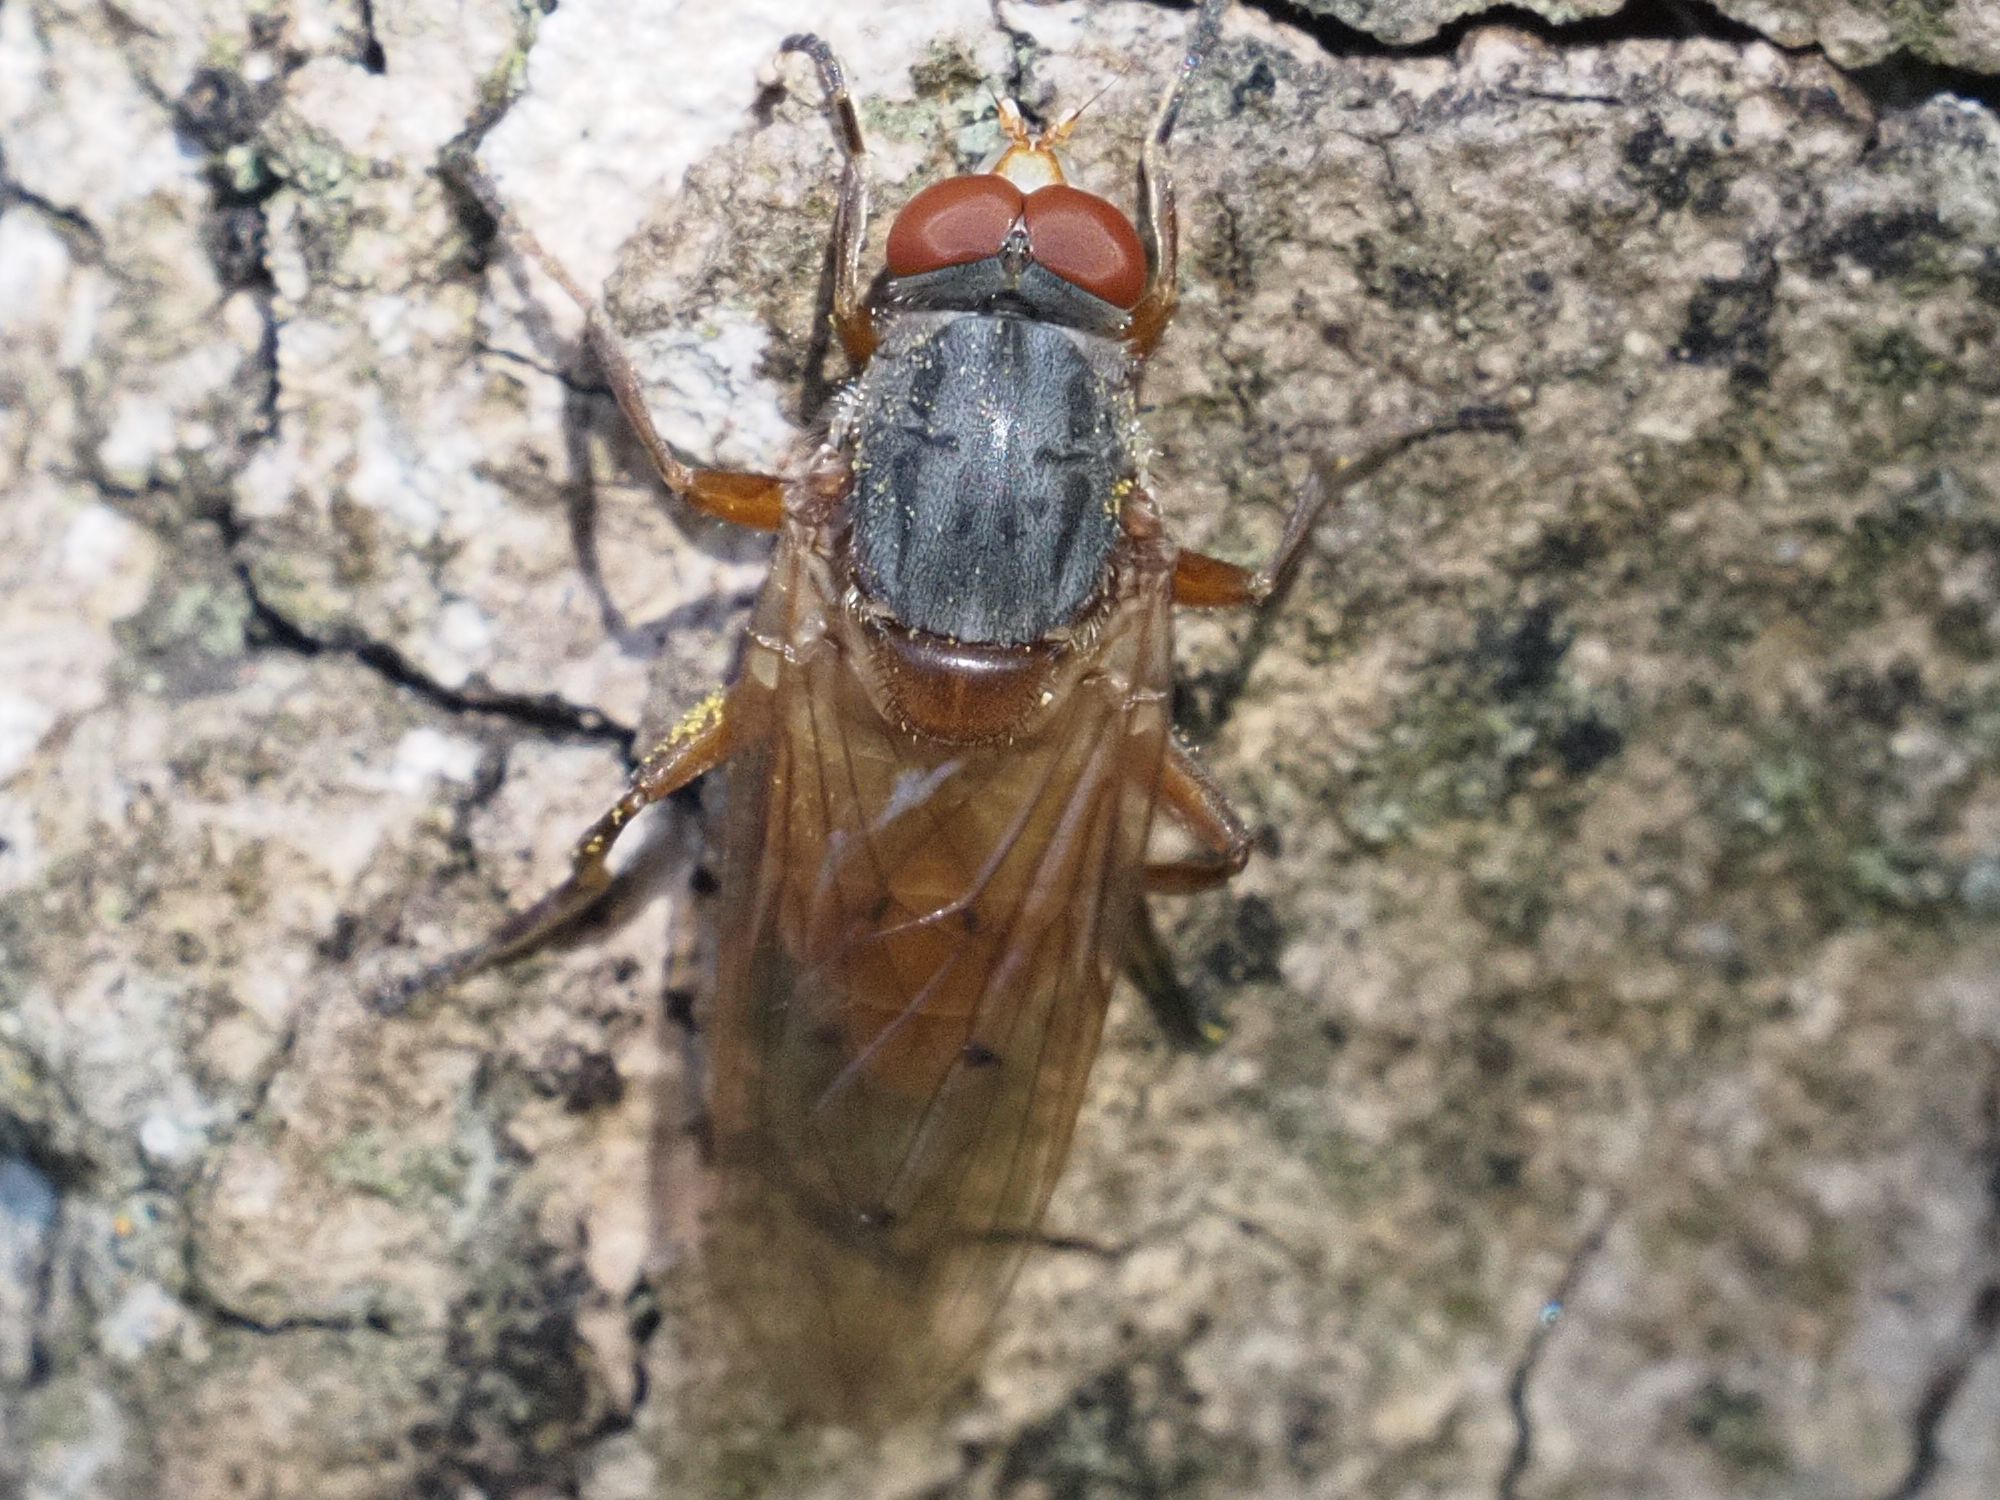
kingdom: Animalia
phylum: Arthropoda
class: Insecta
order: Diptera
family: Syrphidae
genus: Brachyopa
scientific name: Brachyopa maculipennis
